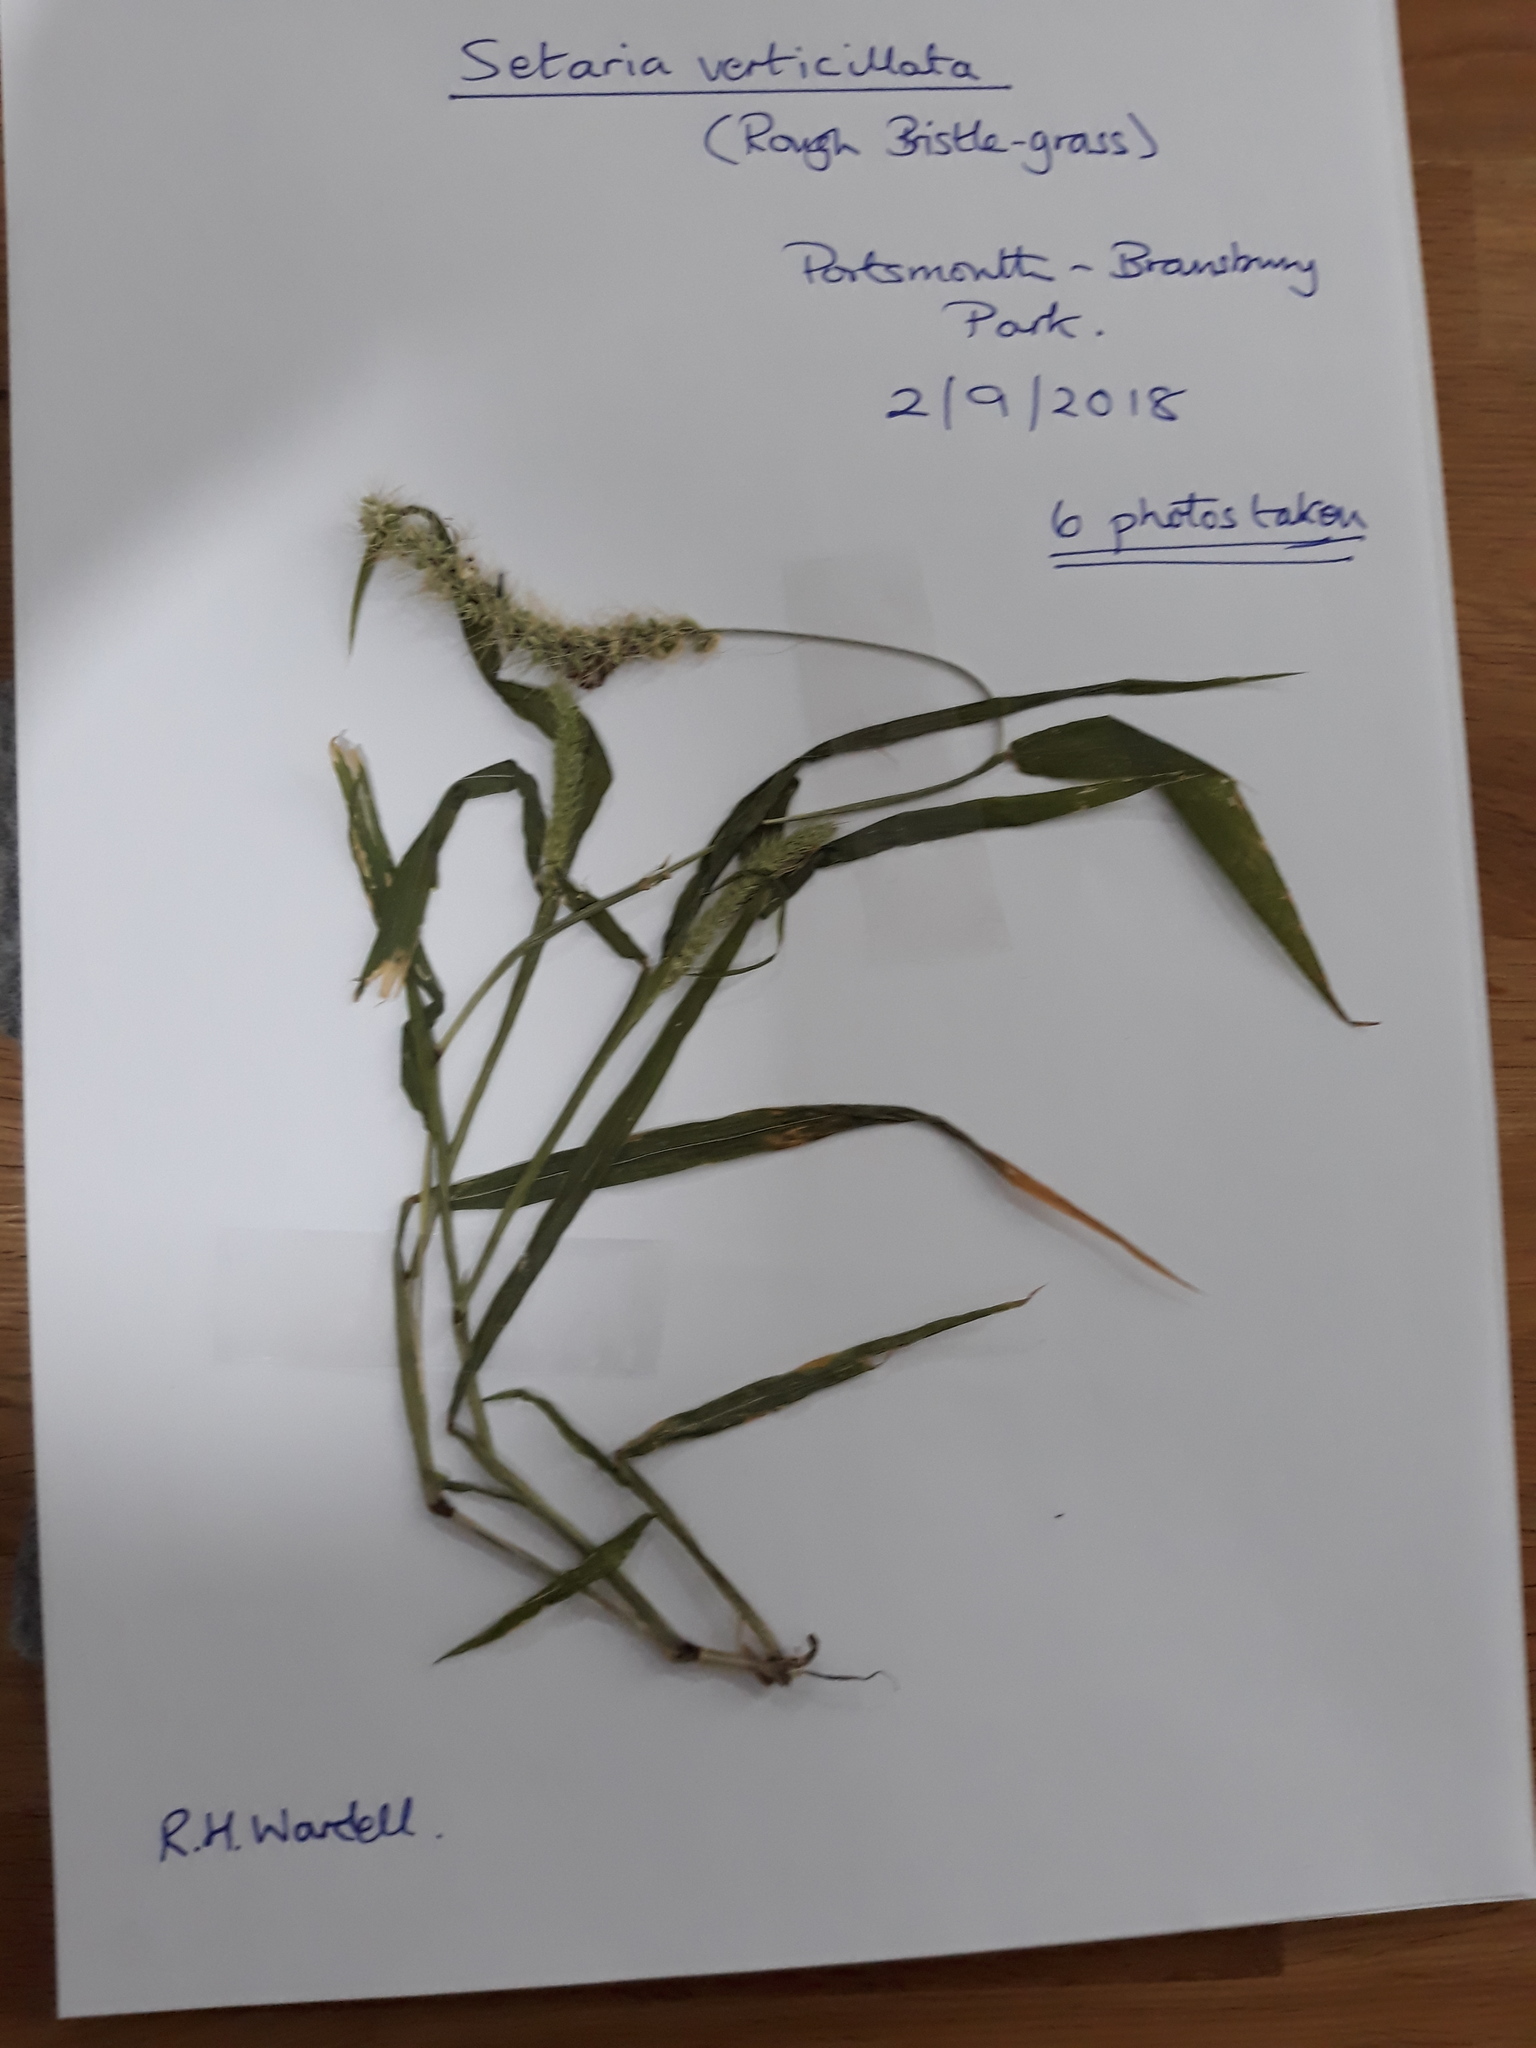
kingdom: Plantae
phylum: Tracheophyta
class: Liliopsida
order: Poales
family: Poaceae
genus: Setaria
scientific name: Setaria verticillata
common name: Hooked bristlegrass
